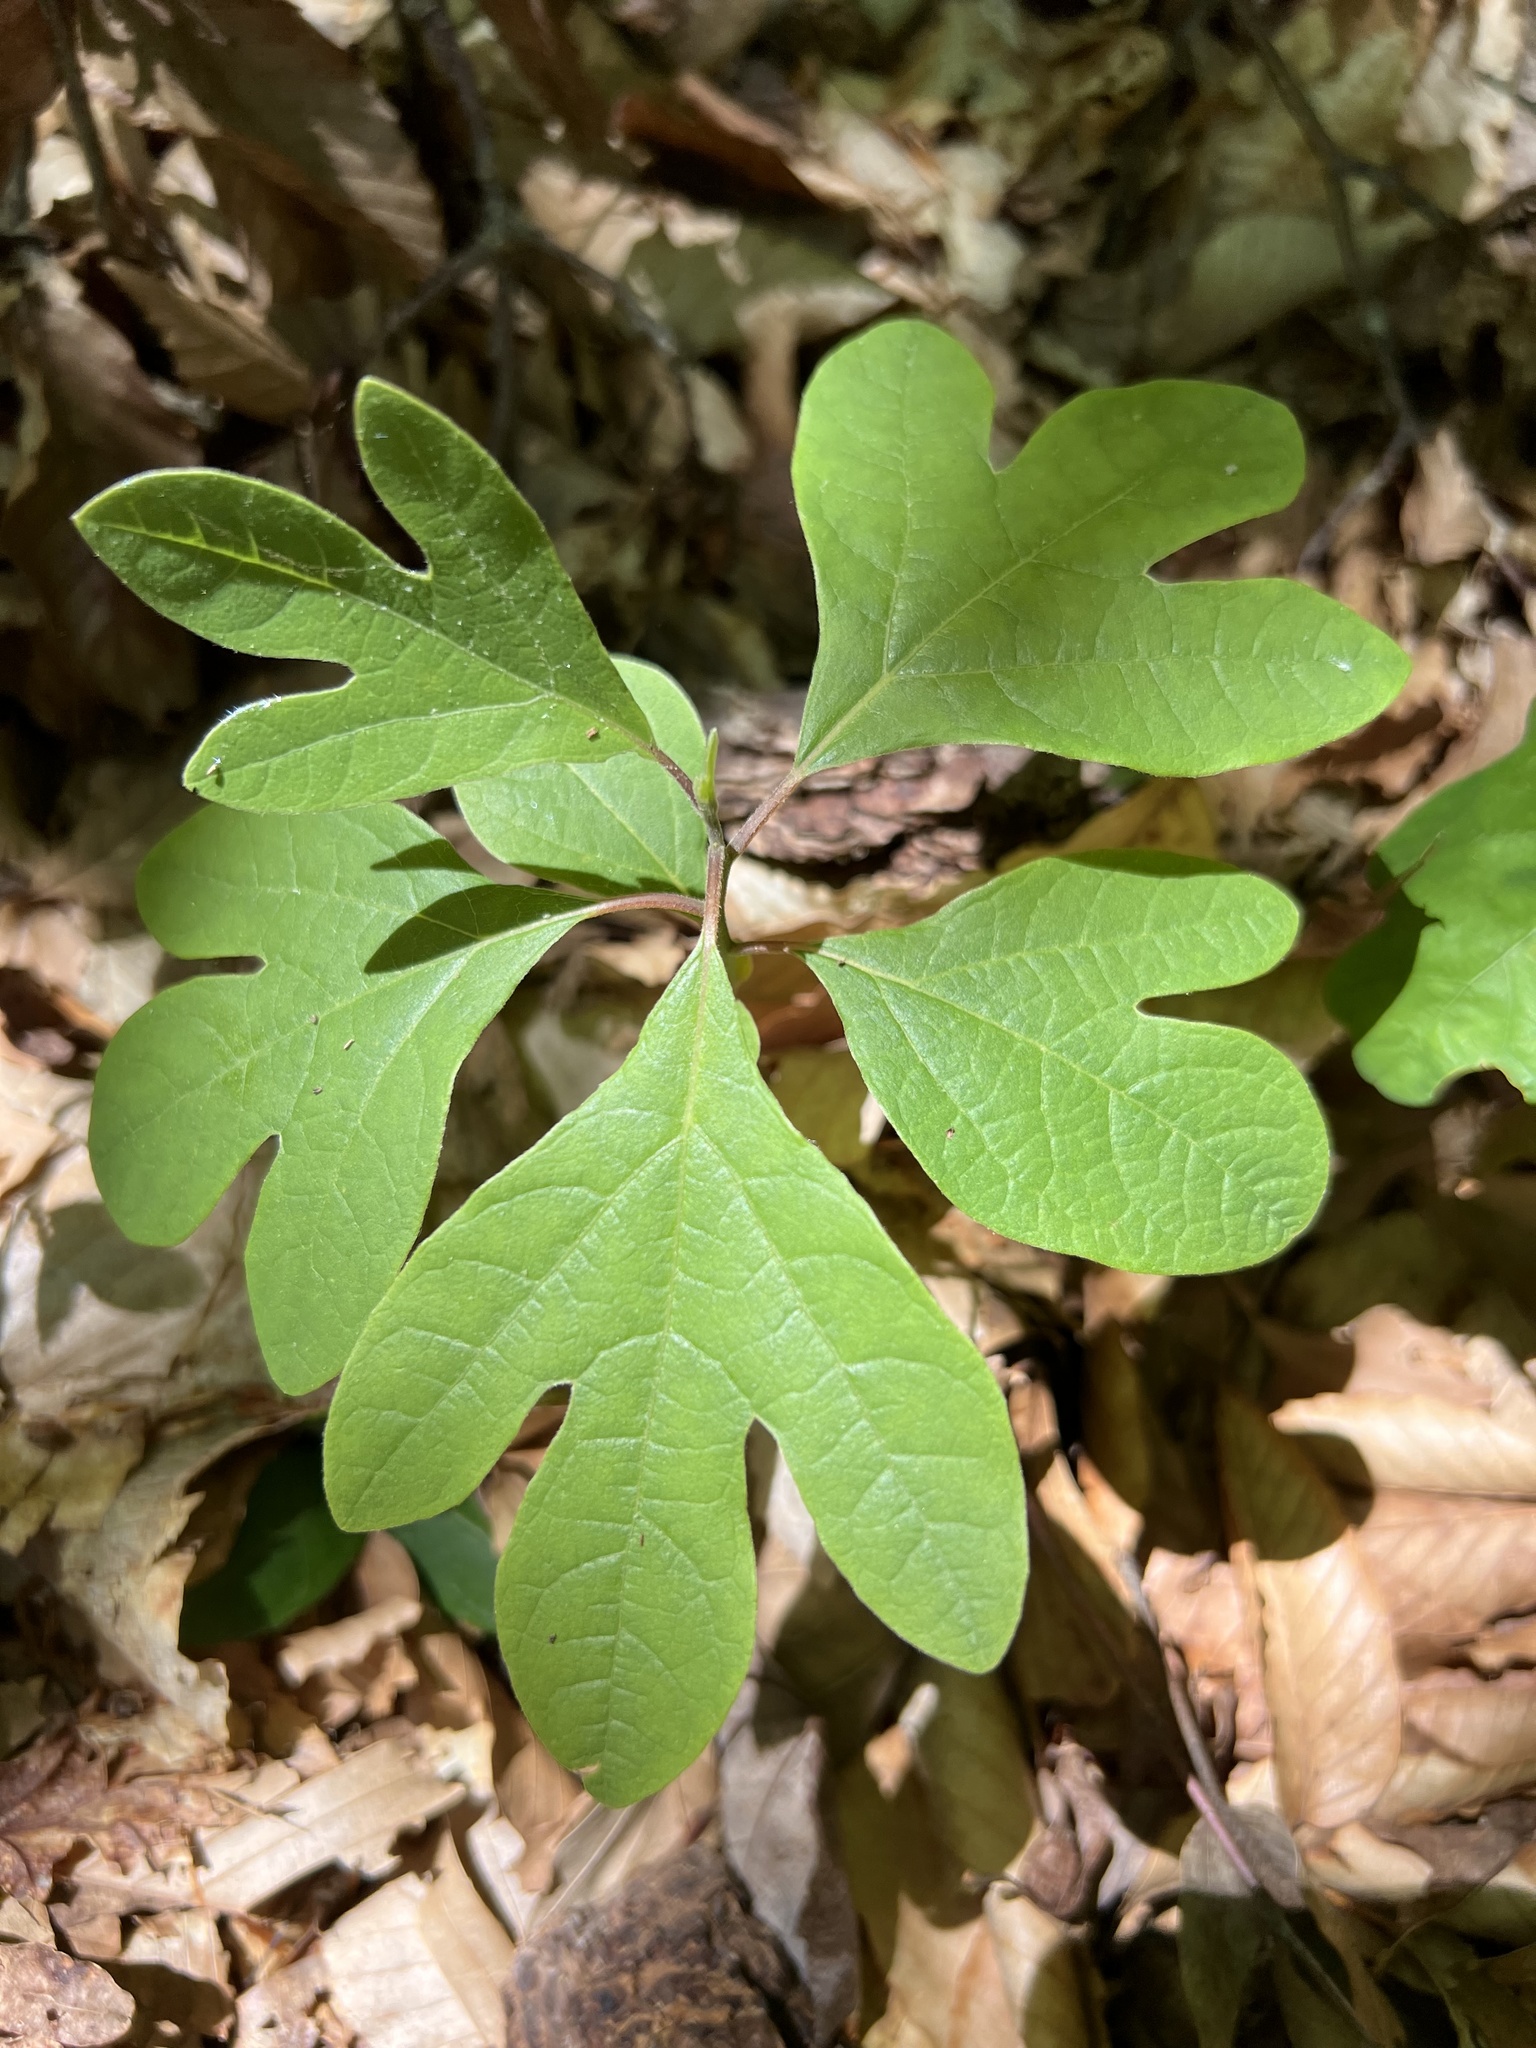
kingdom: Plantae
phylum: Tracheophyta
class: Magnoliopsida
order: Laurales
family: Lauraceae
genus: Sassafras
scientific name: Sassafras albidum
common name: Sassafras
